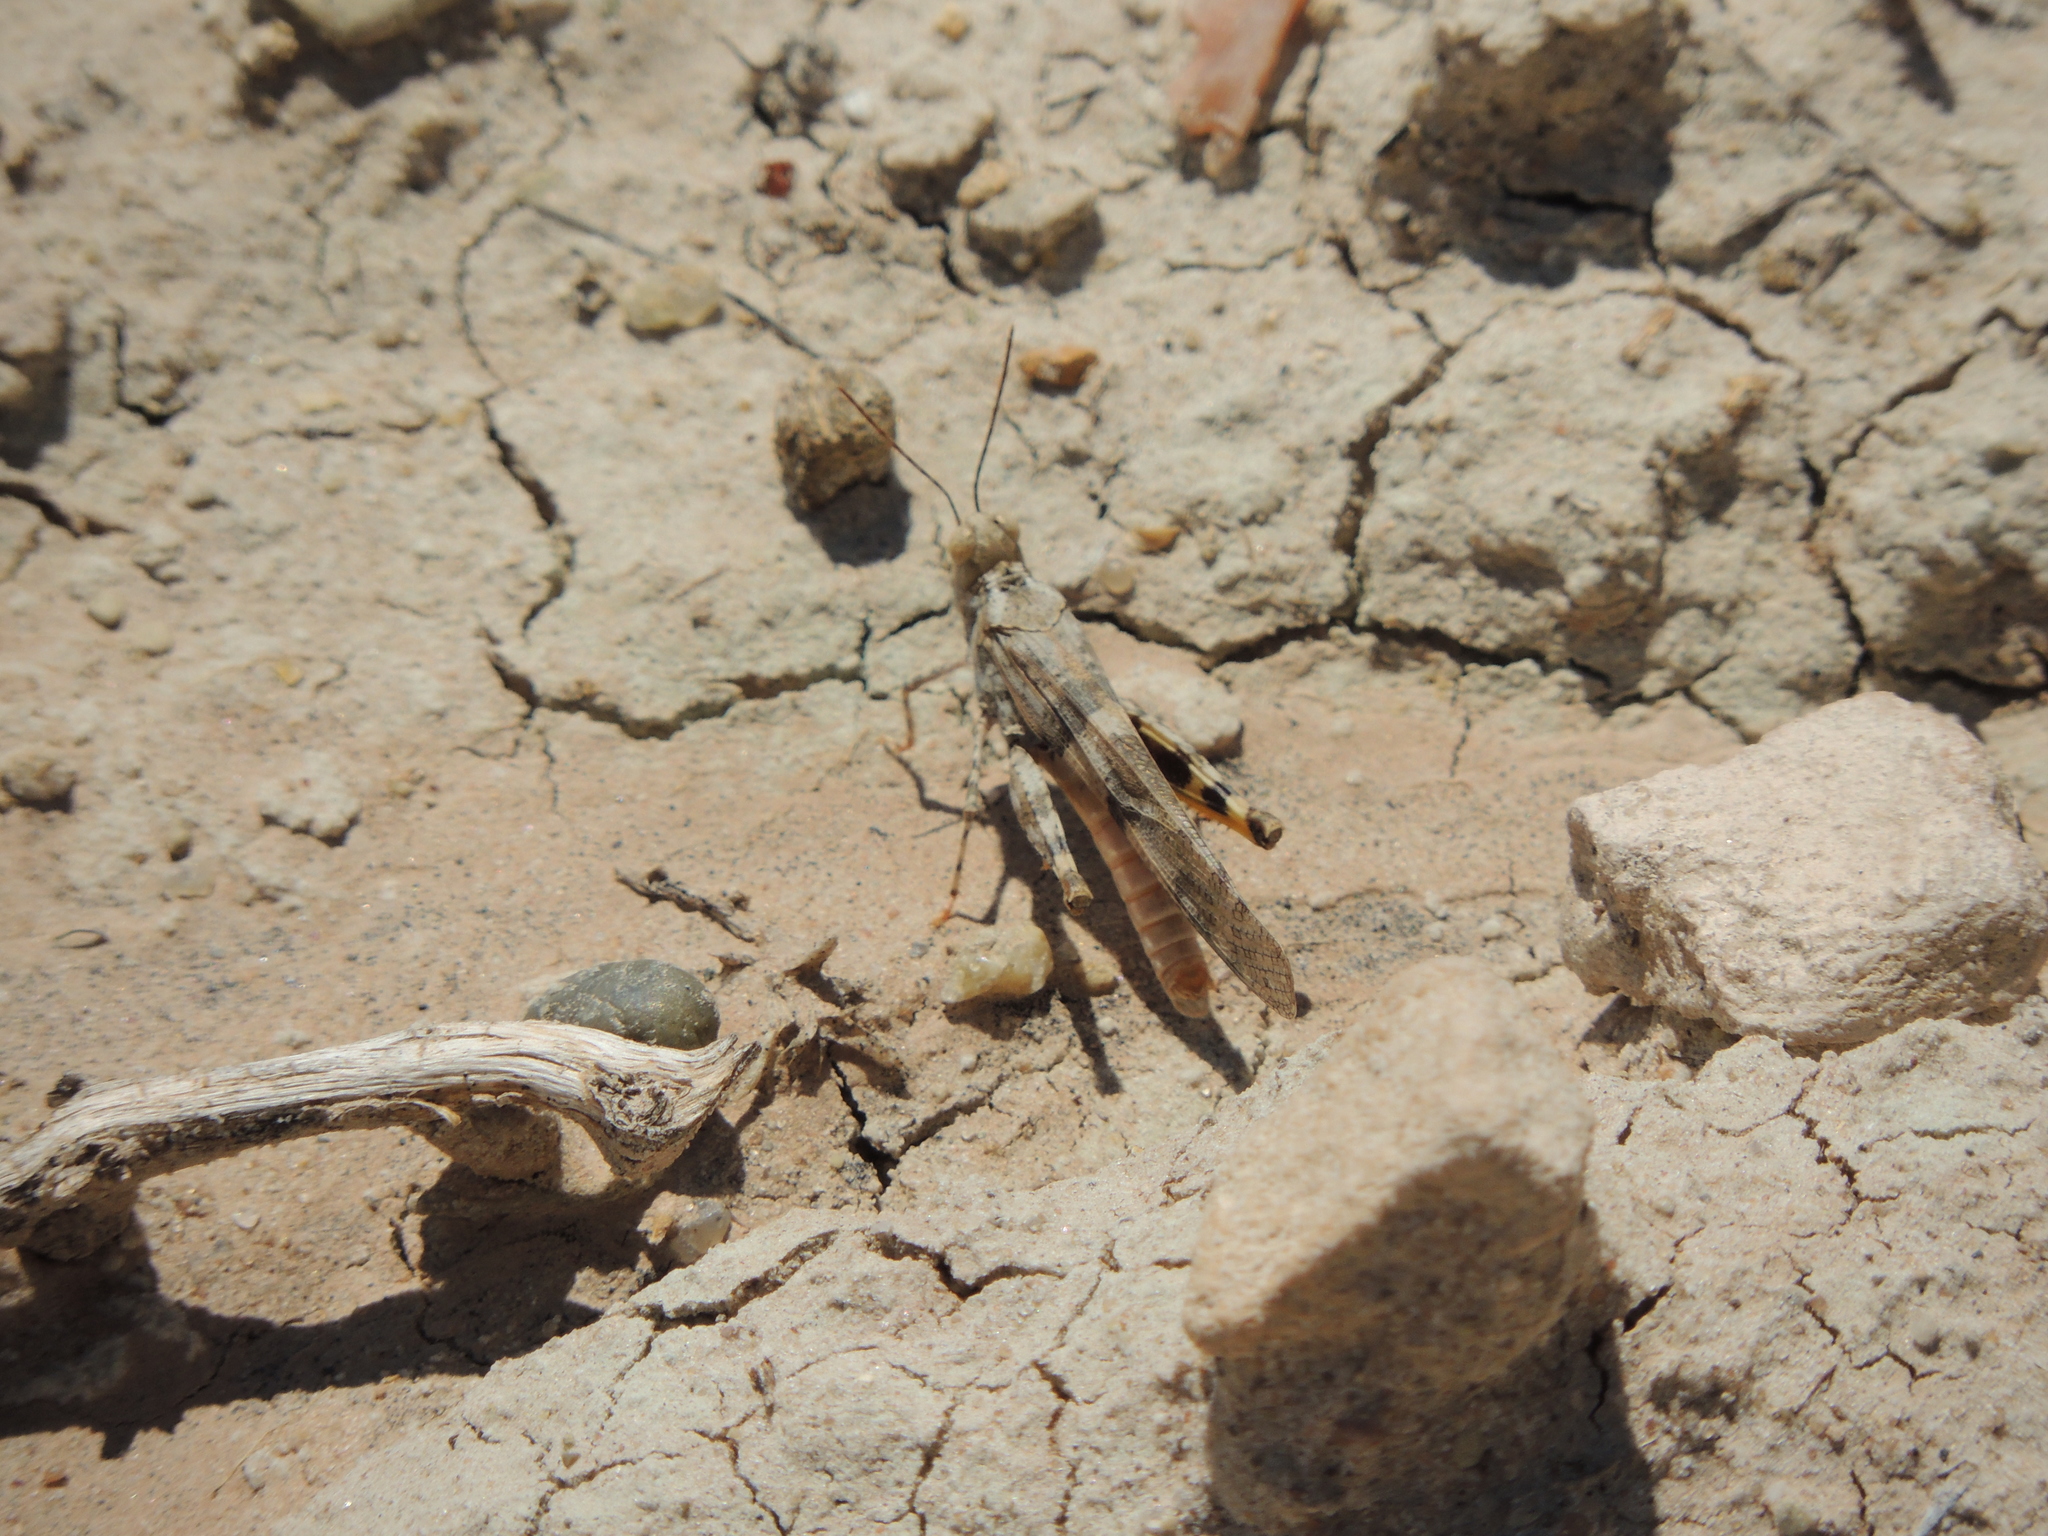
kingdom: Animalia
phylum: Arthropoda
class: Insecta
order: Orthoptera
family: Acrididae
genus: Trimerotropis
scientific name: Trimerotropis pallidipennis
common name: Pallid-winged grasshopper
